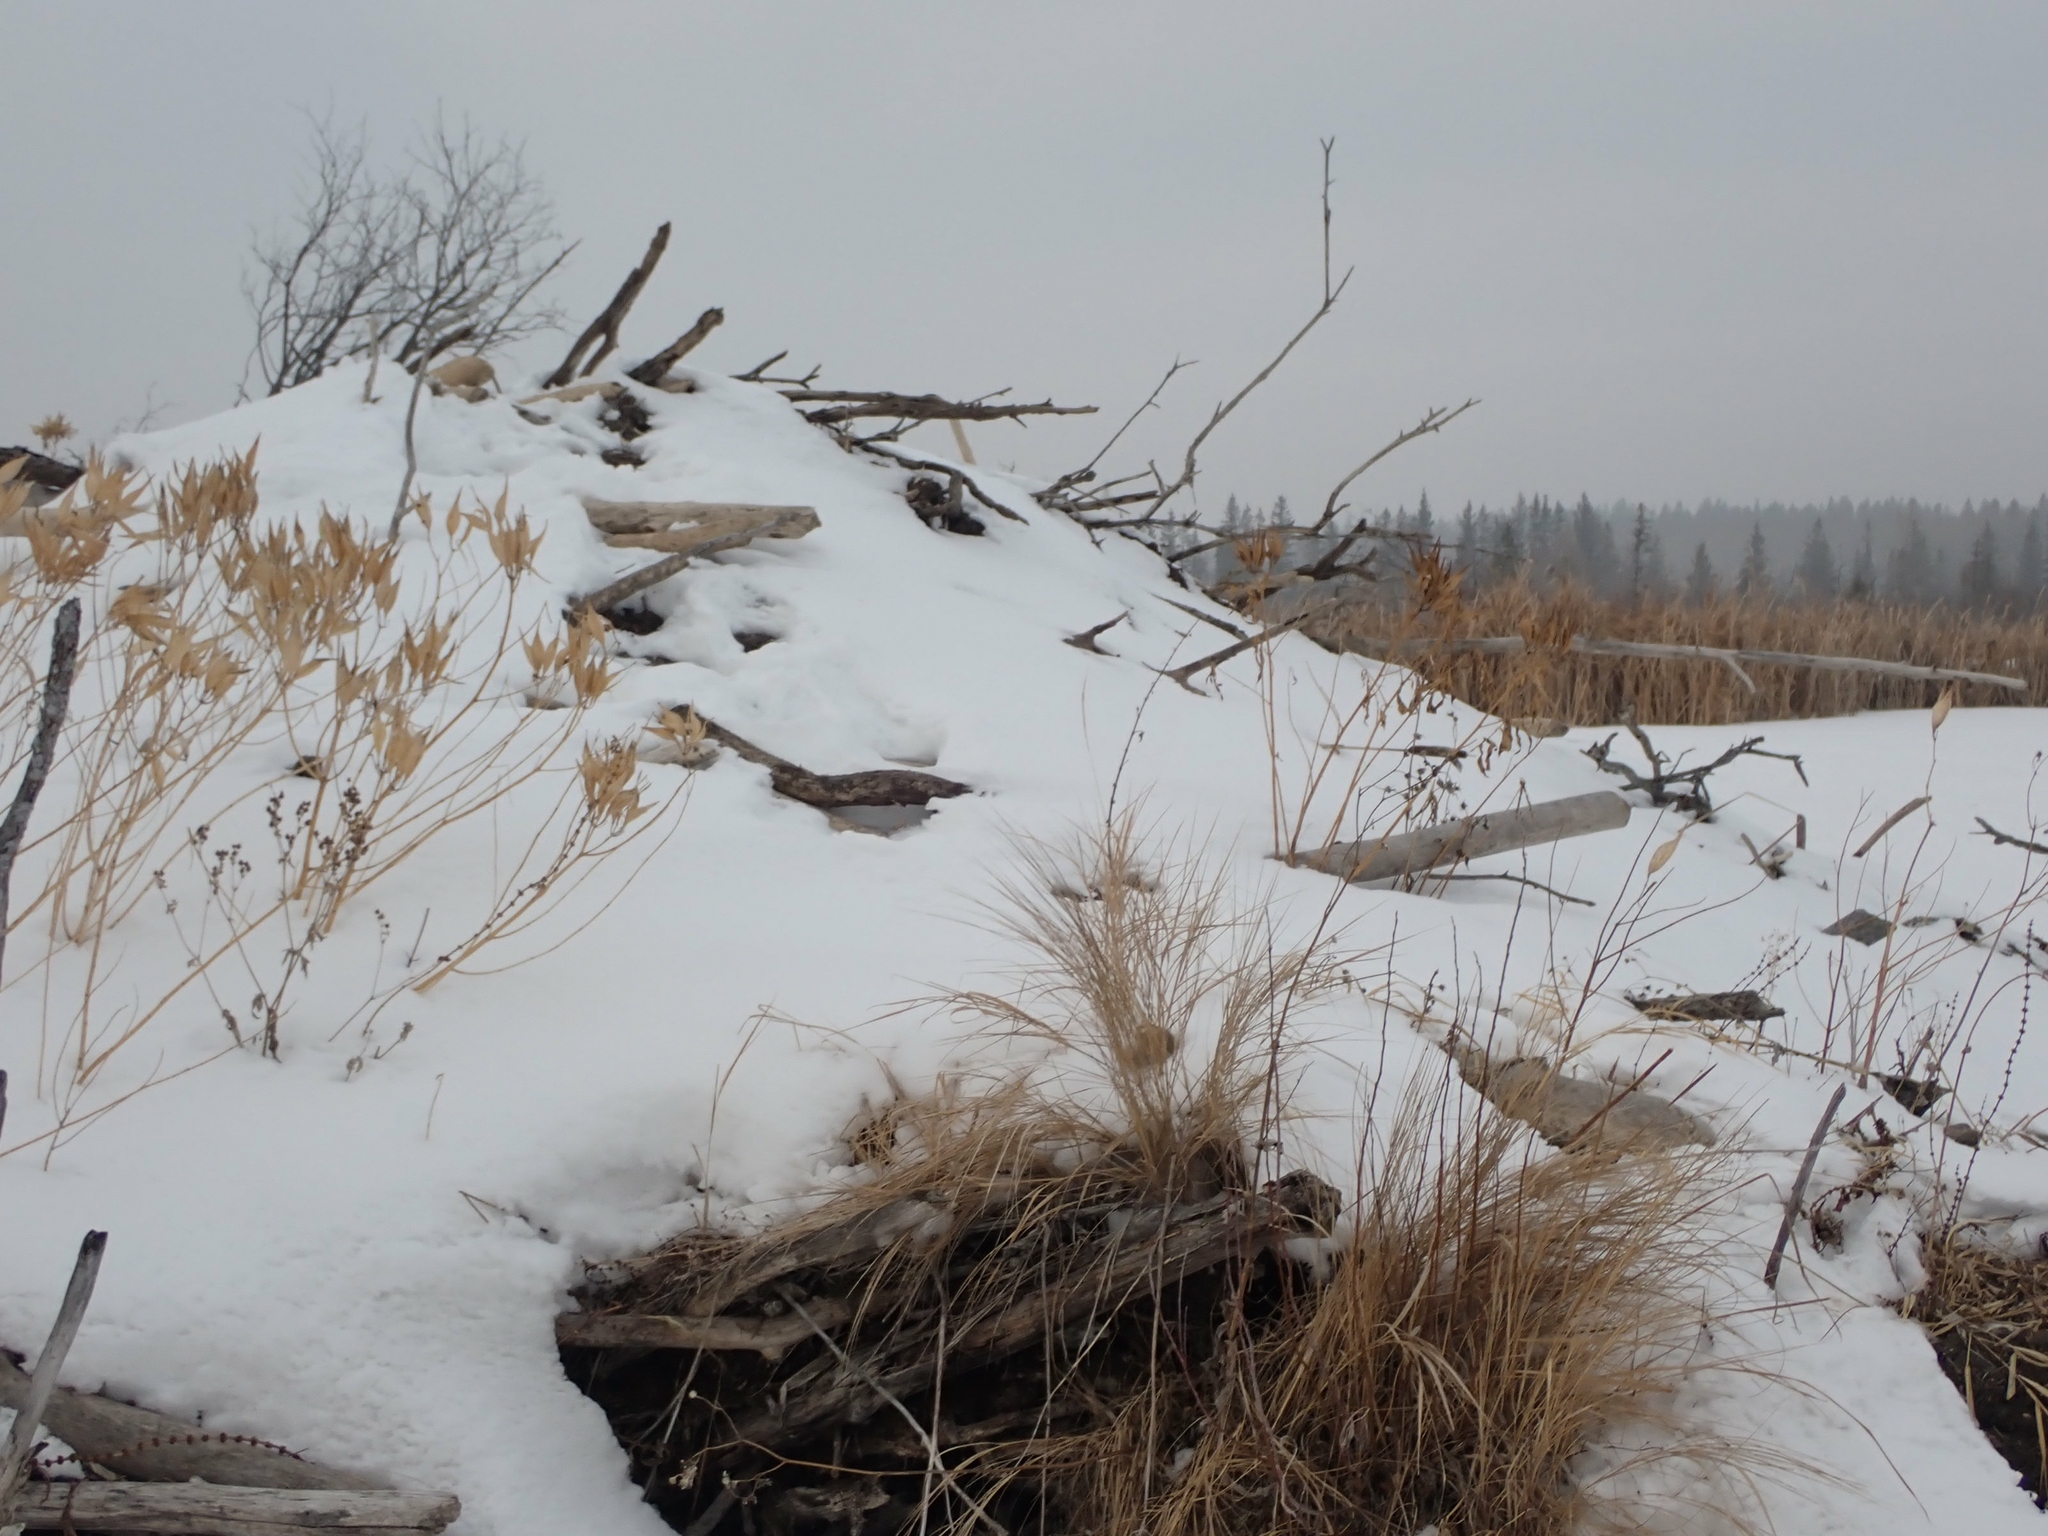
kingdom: Animalia
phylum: Chordata
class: Mammalia
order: Rodentia
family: Castoridae
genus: Castor
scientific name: Castor canadensis
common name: American beaver
